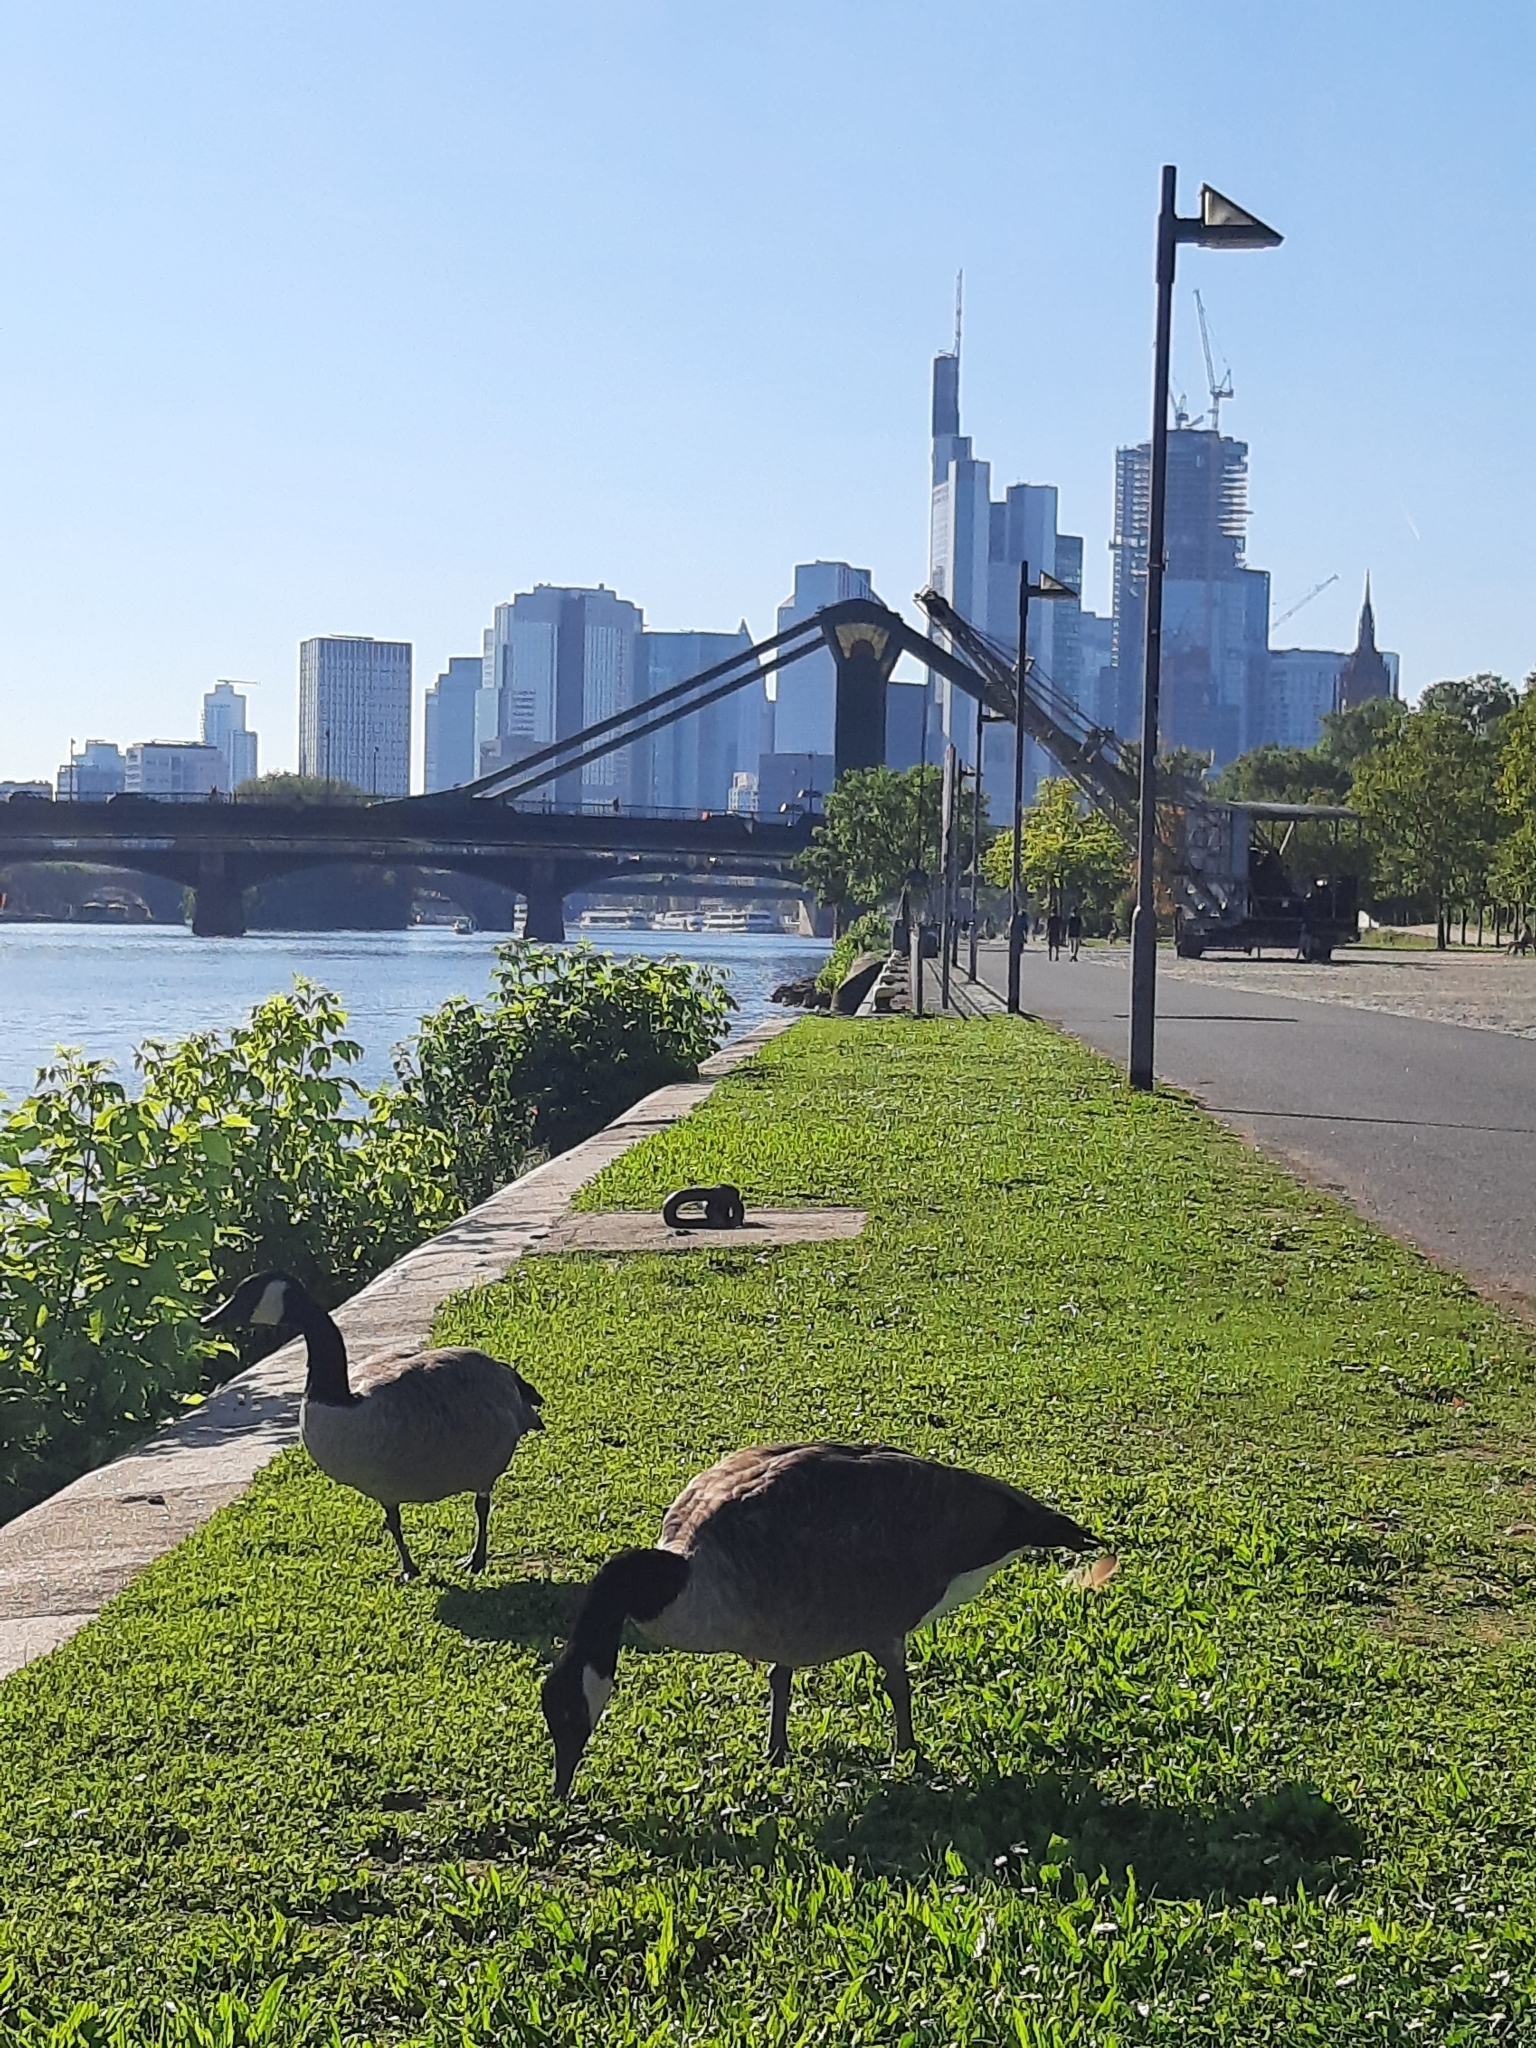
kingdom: Animalia
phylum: Chordata
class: Aves
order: Anseriformes
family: Anatidae
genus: Branta
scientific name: Branta canadensis
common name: Canada goose
